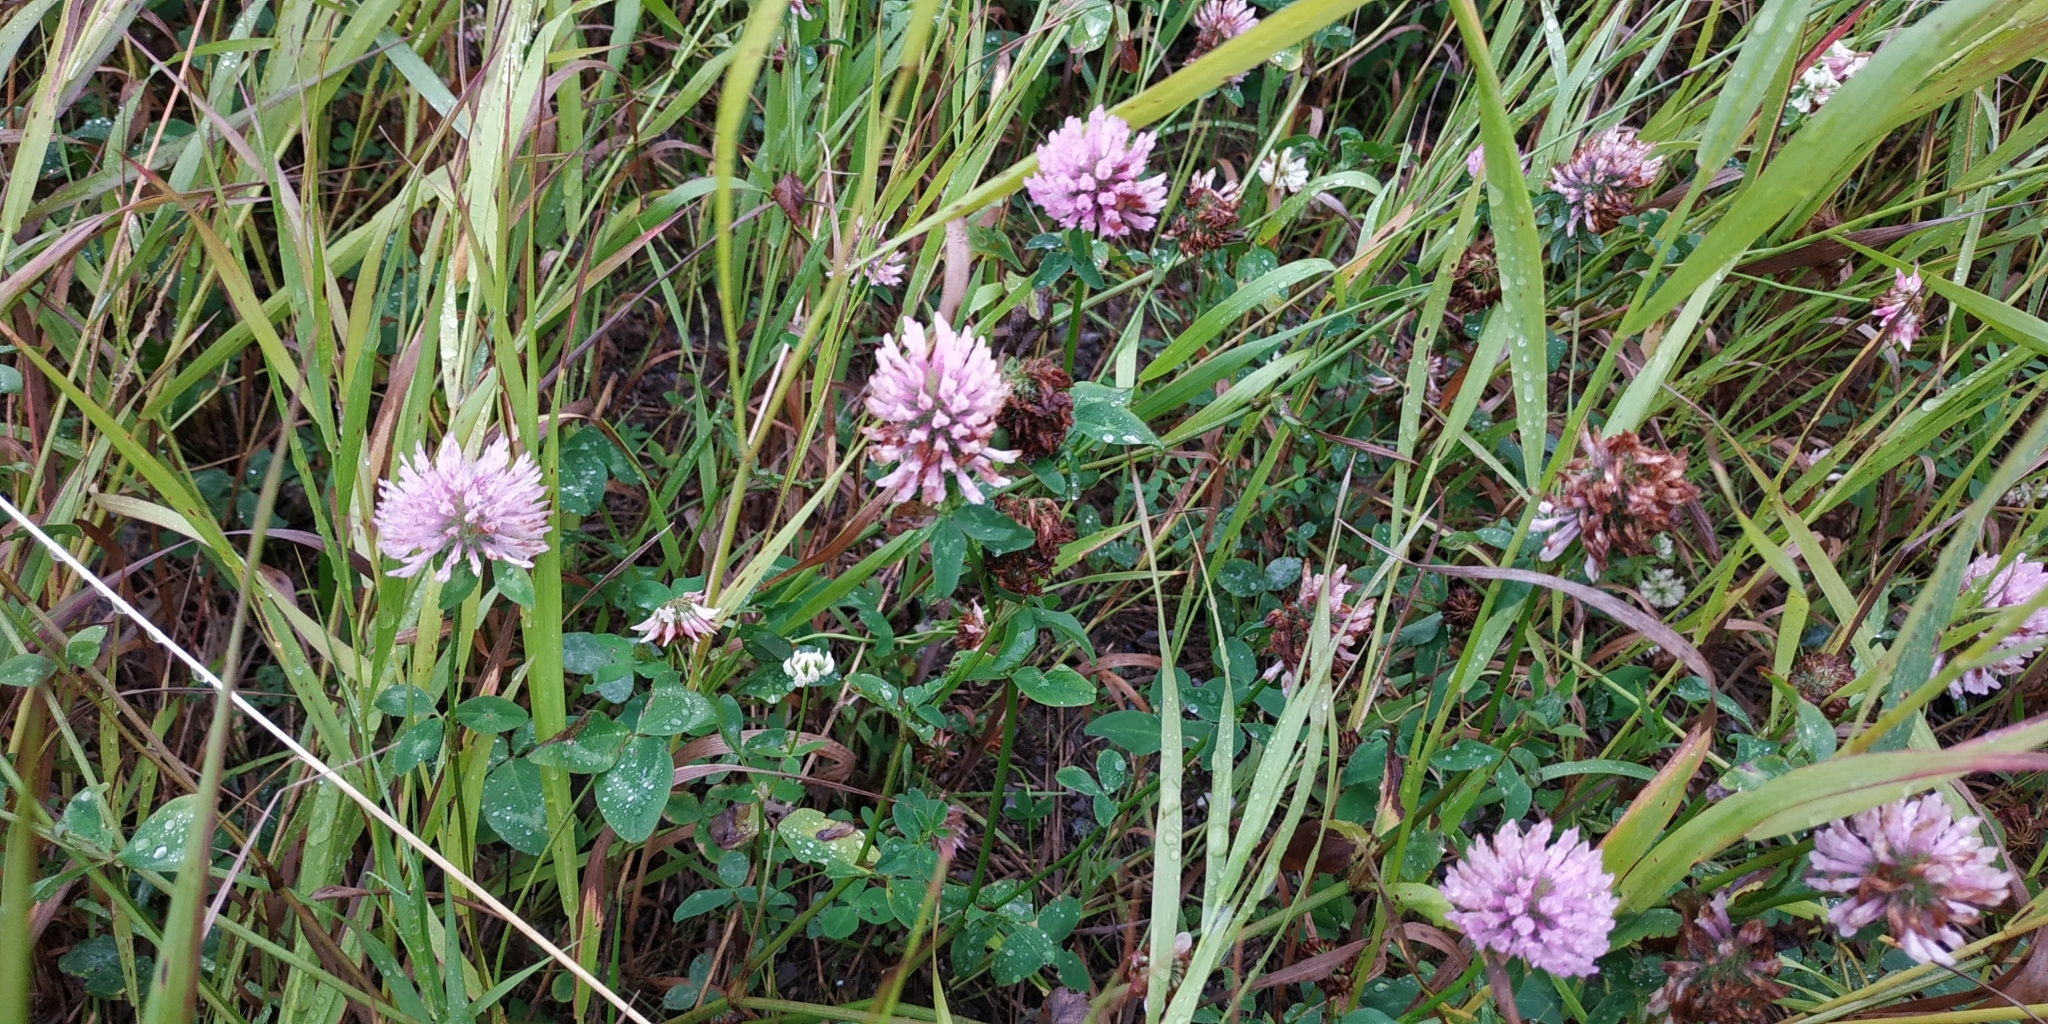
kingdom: Plantae
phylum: Tracheophyta
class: Magnoliopsida
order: Fabales
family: Fabaceae
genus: Trifolium
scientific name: Trifolium pratense
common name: Red clover
